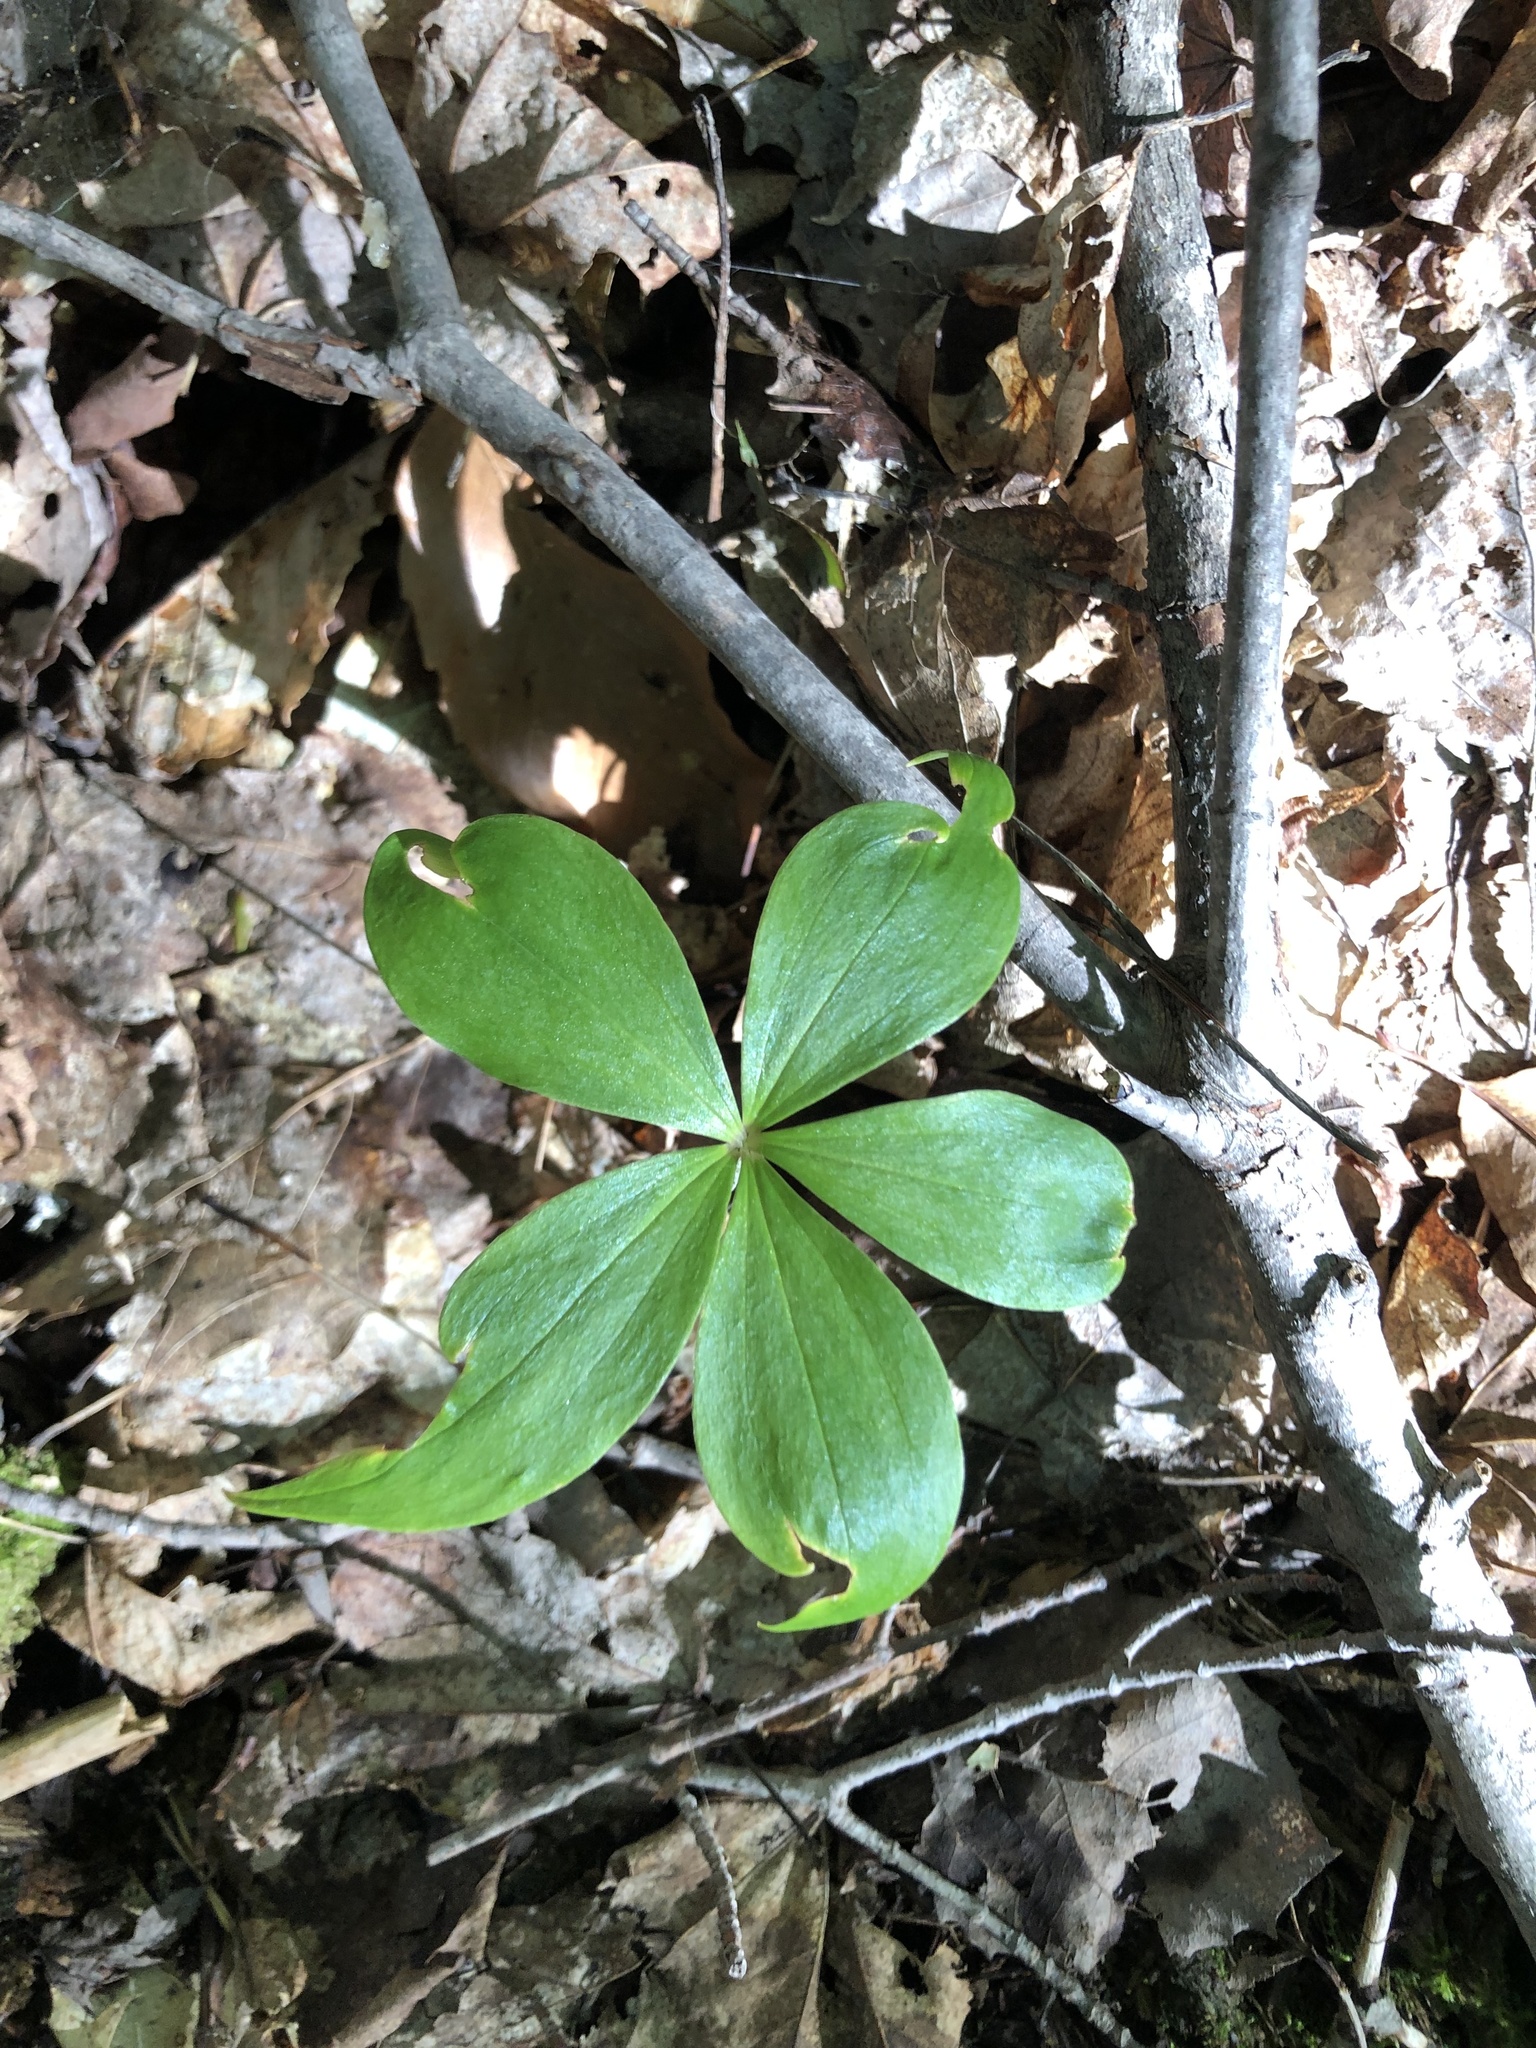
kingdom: Plantae
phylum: Tracheophyta
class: Liliopsida
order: Liliales
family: Liliaceae
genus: Medeola
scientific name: Medeola virginiana
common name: Indian cucumber-root
